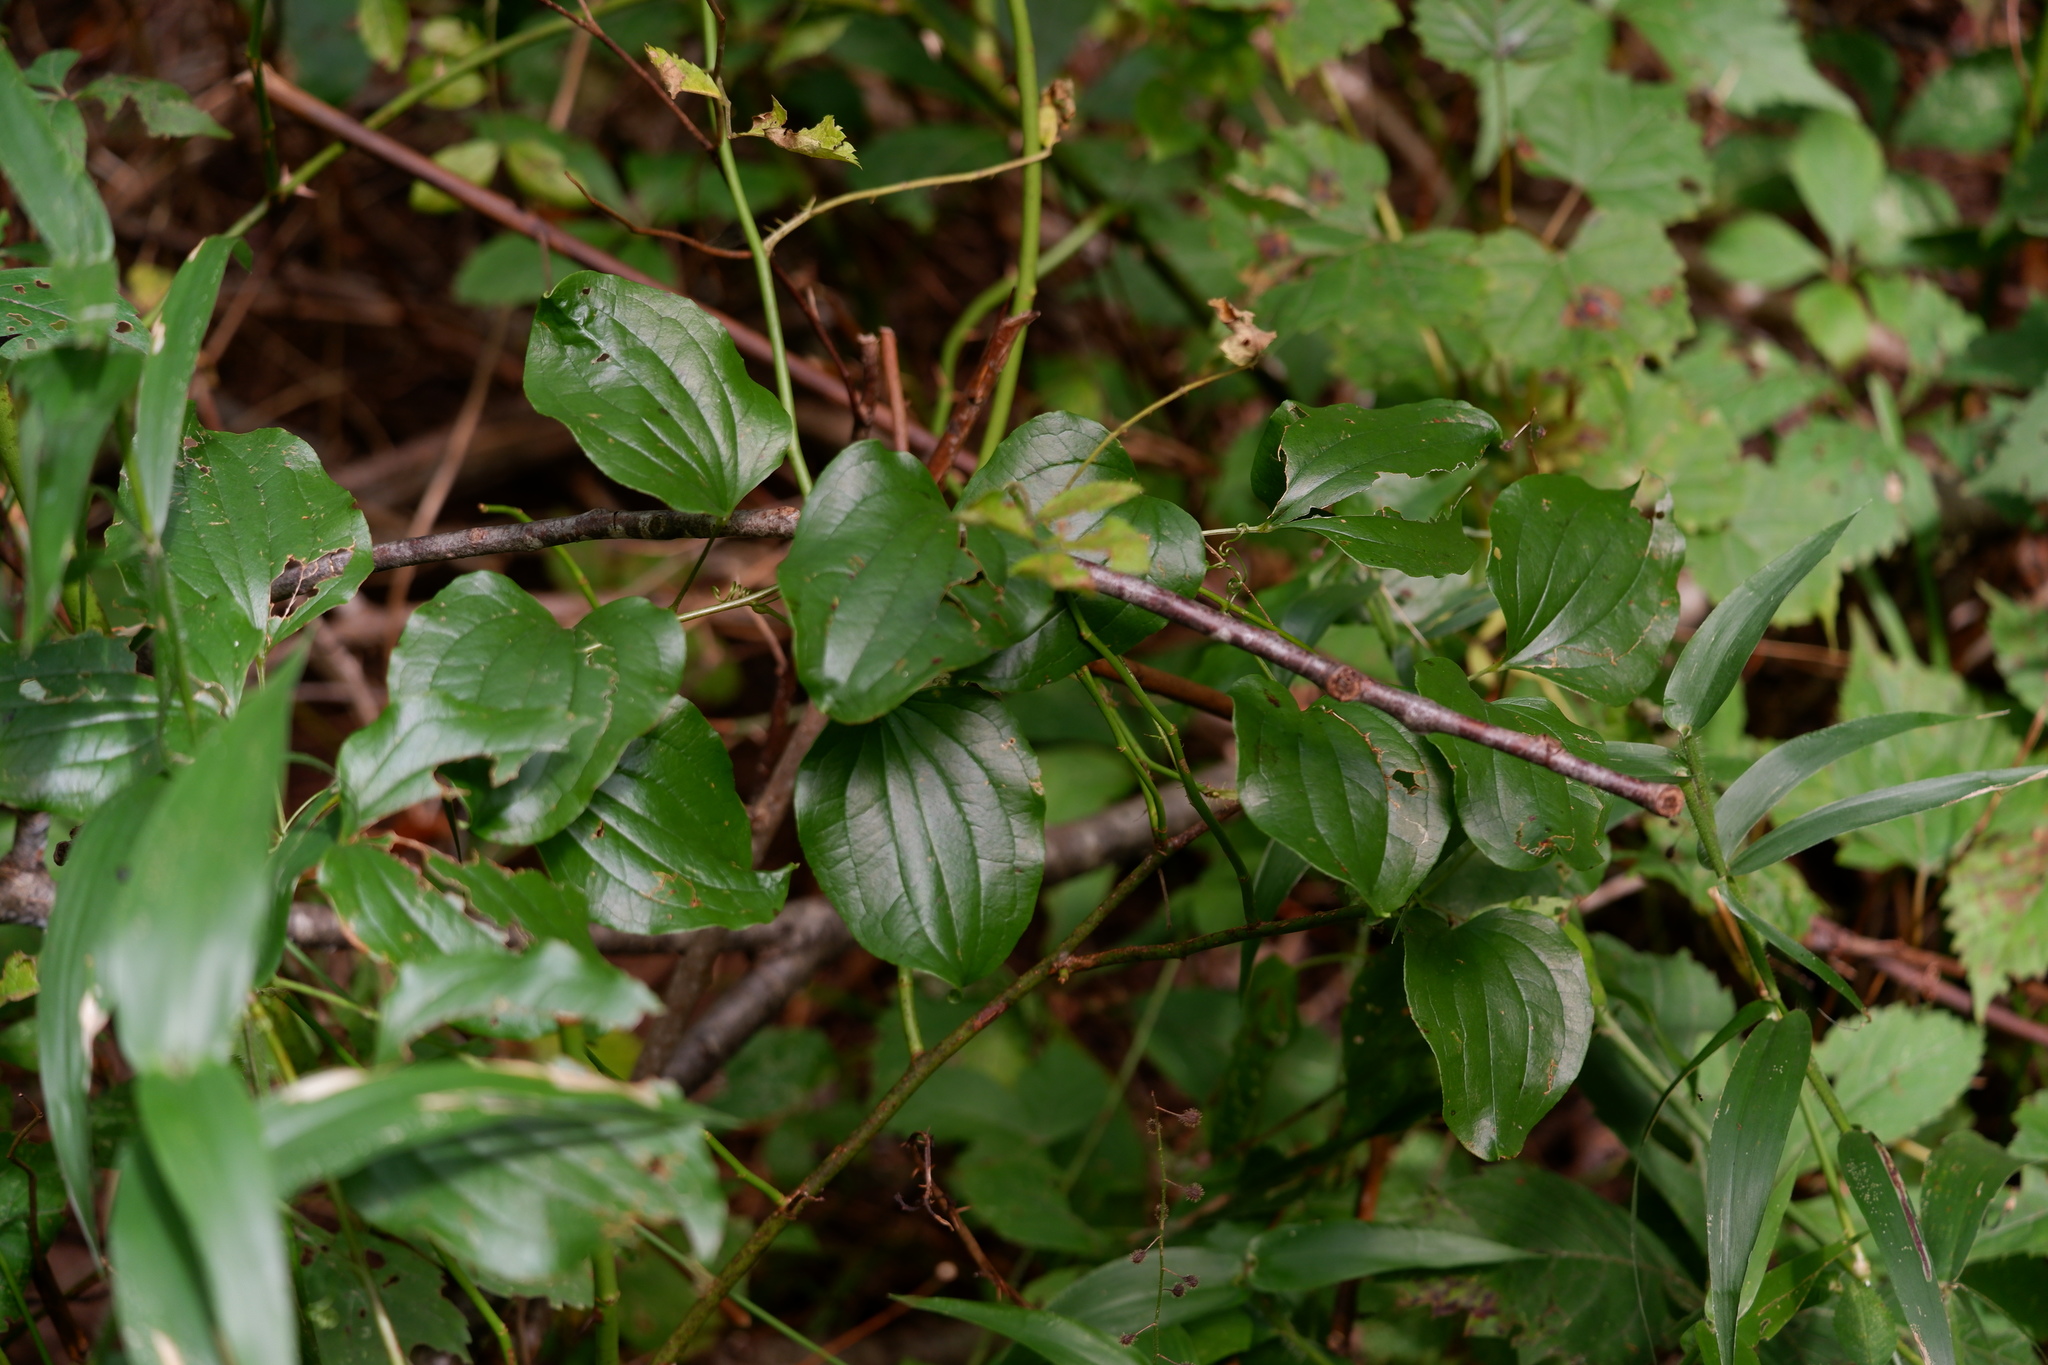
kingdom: Plantae
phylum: Tracheophyta
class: Liliopsida
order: Liliales
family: Smilacaceae
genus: Smilax
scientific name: Smilax herbacea
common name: Jacob's-ladder
